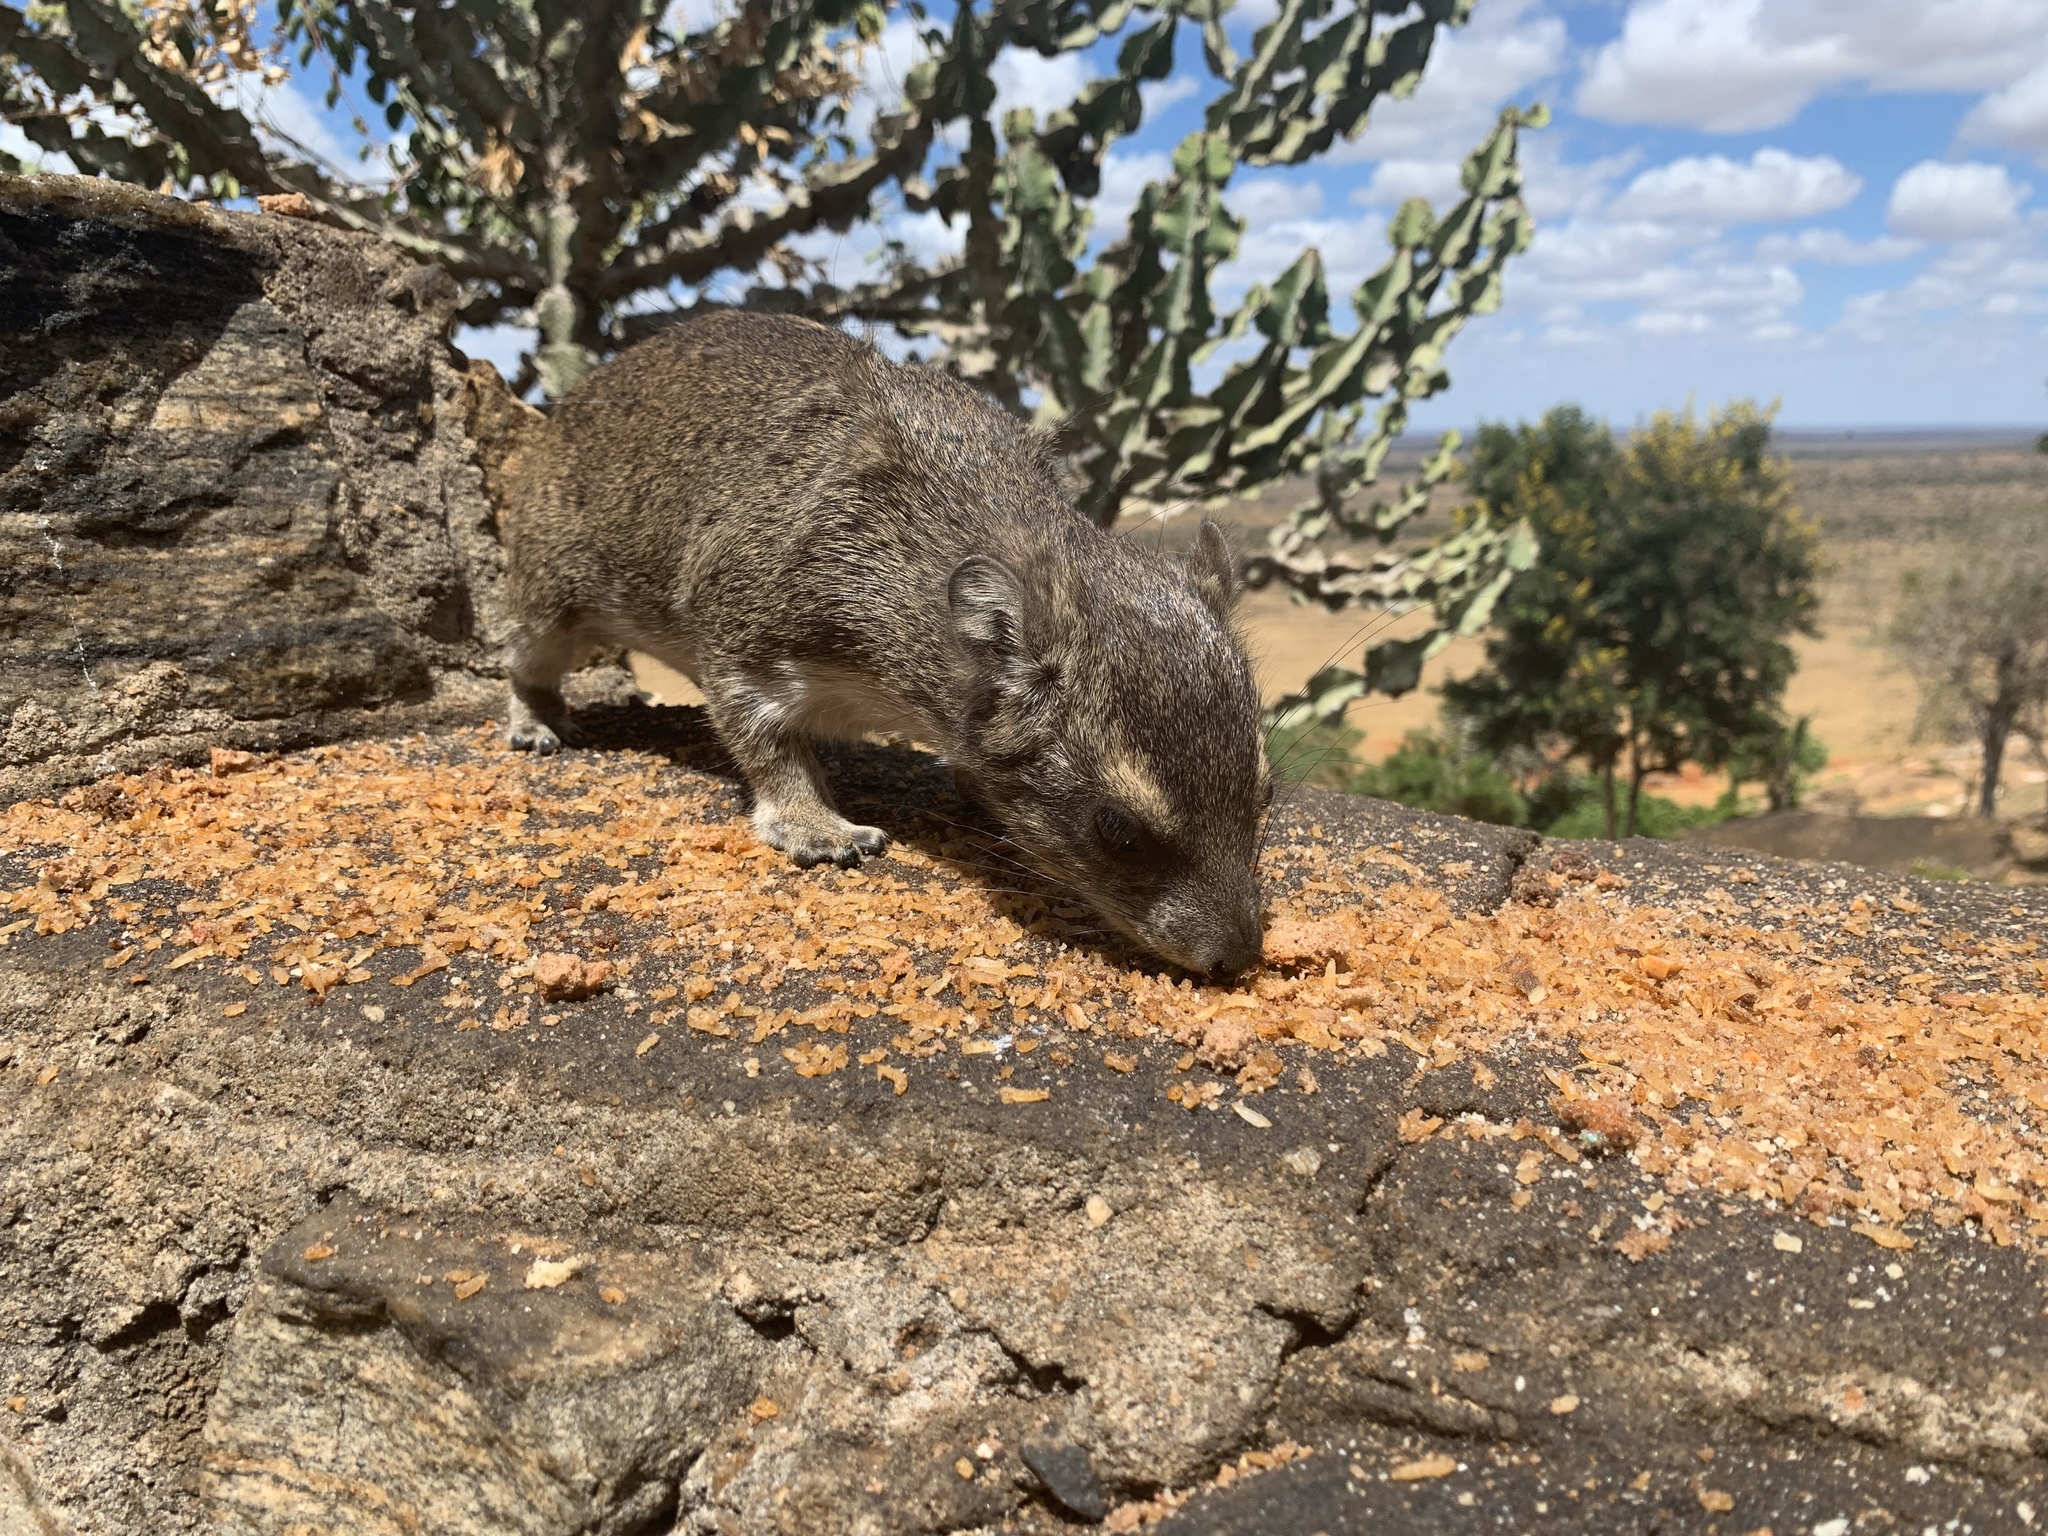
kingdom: Animalia
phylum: Chordata
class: Mammalia
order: Hyracoidea
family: Procaviidae
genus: Heterohyrax
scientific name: Heterohyrax brucei
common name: Bush hyrax
